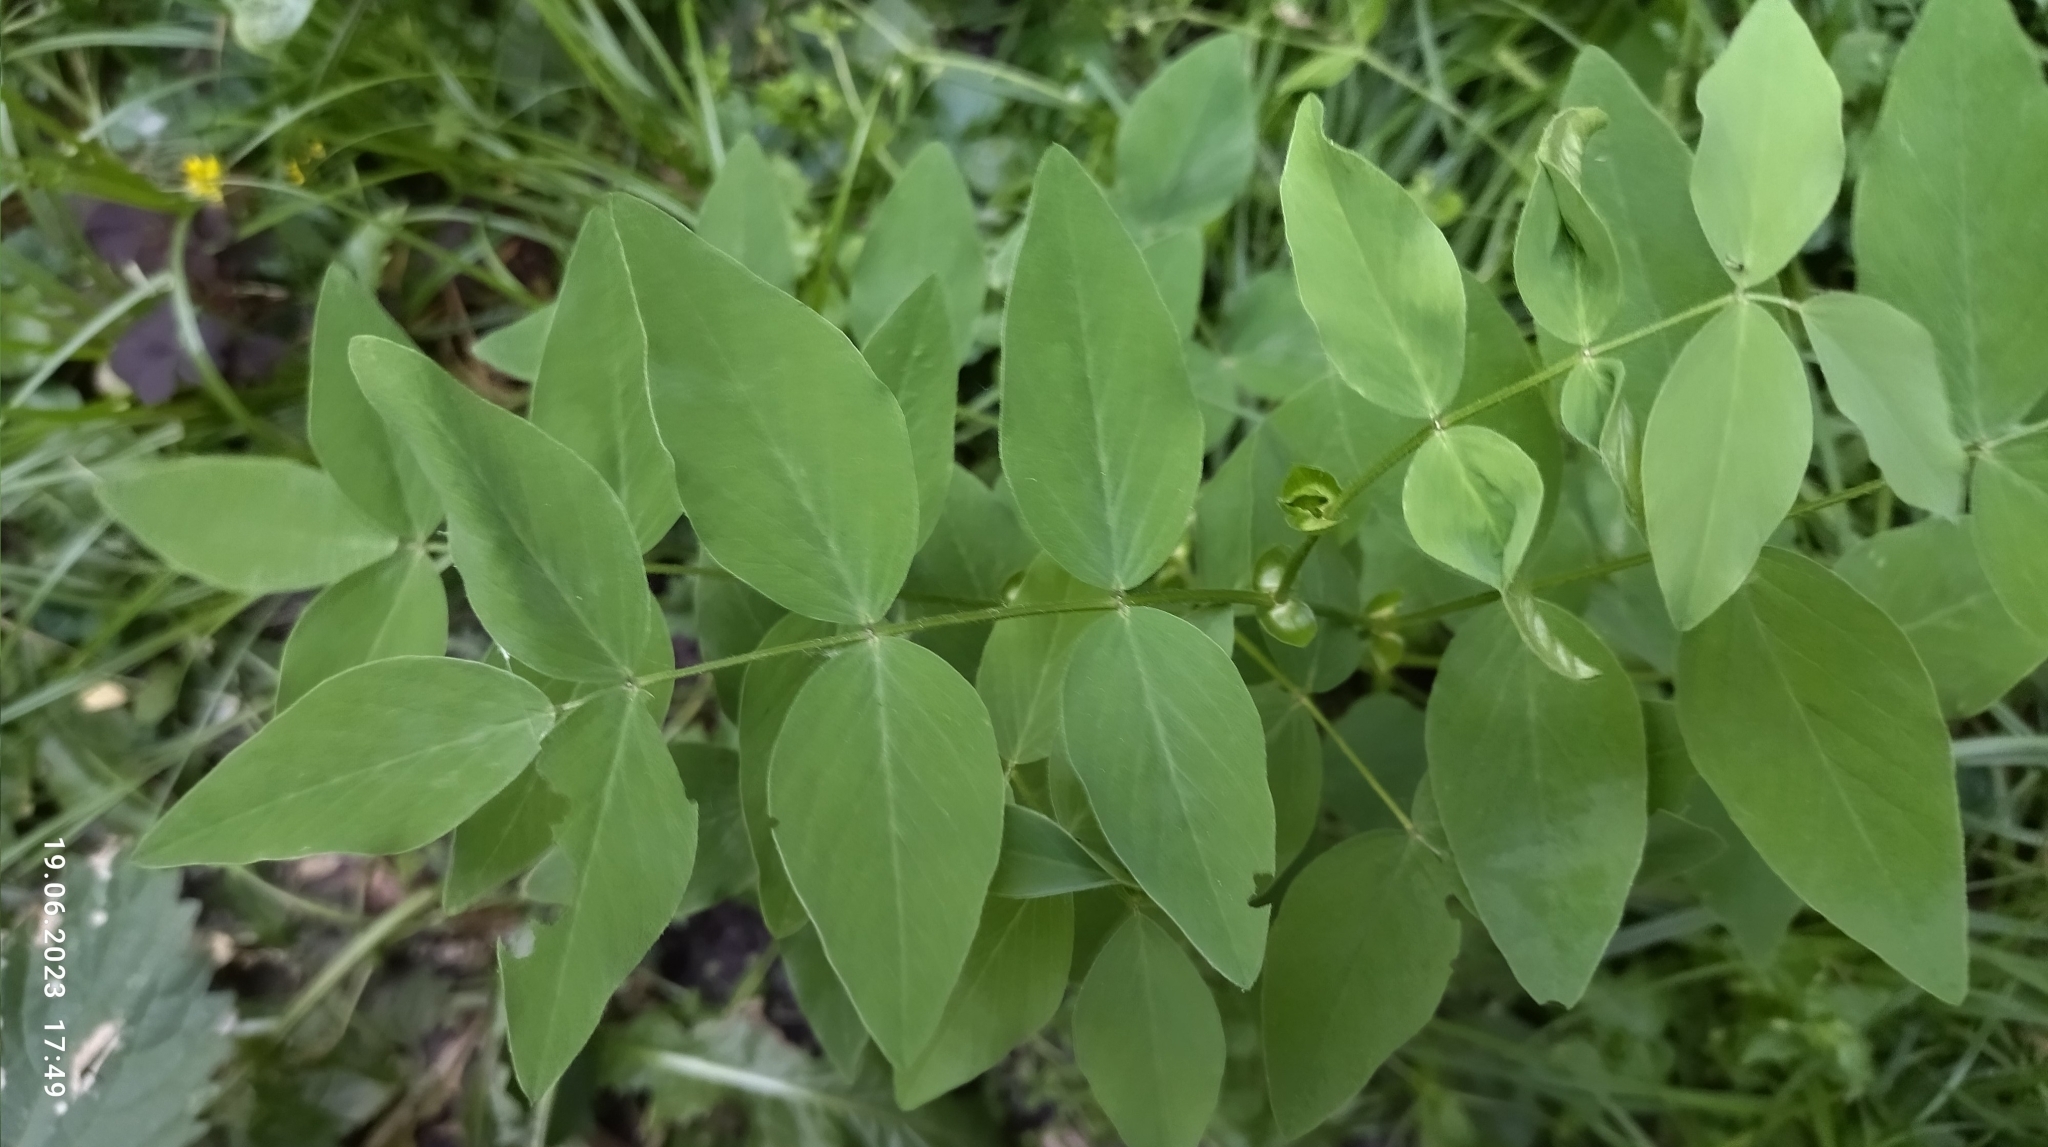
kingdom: Plantae
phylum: Tracheophyta
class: Magnoliopsida
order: Fabales
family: Fabaceae
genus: Galega
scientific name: Galega orientalis
